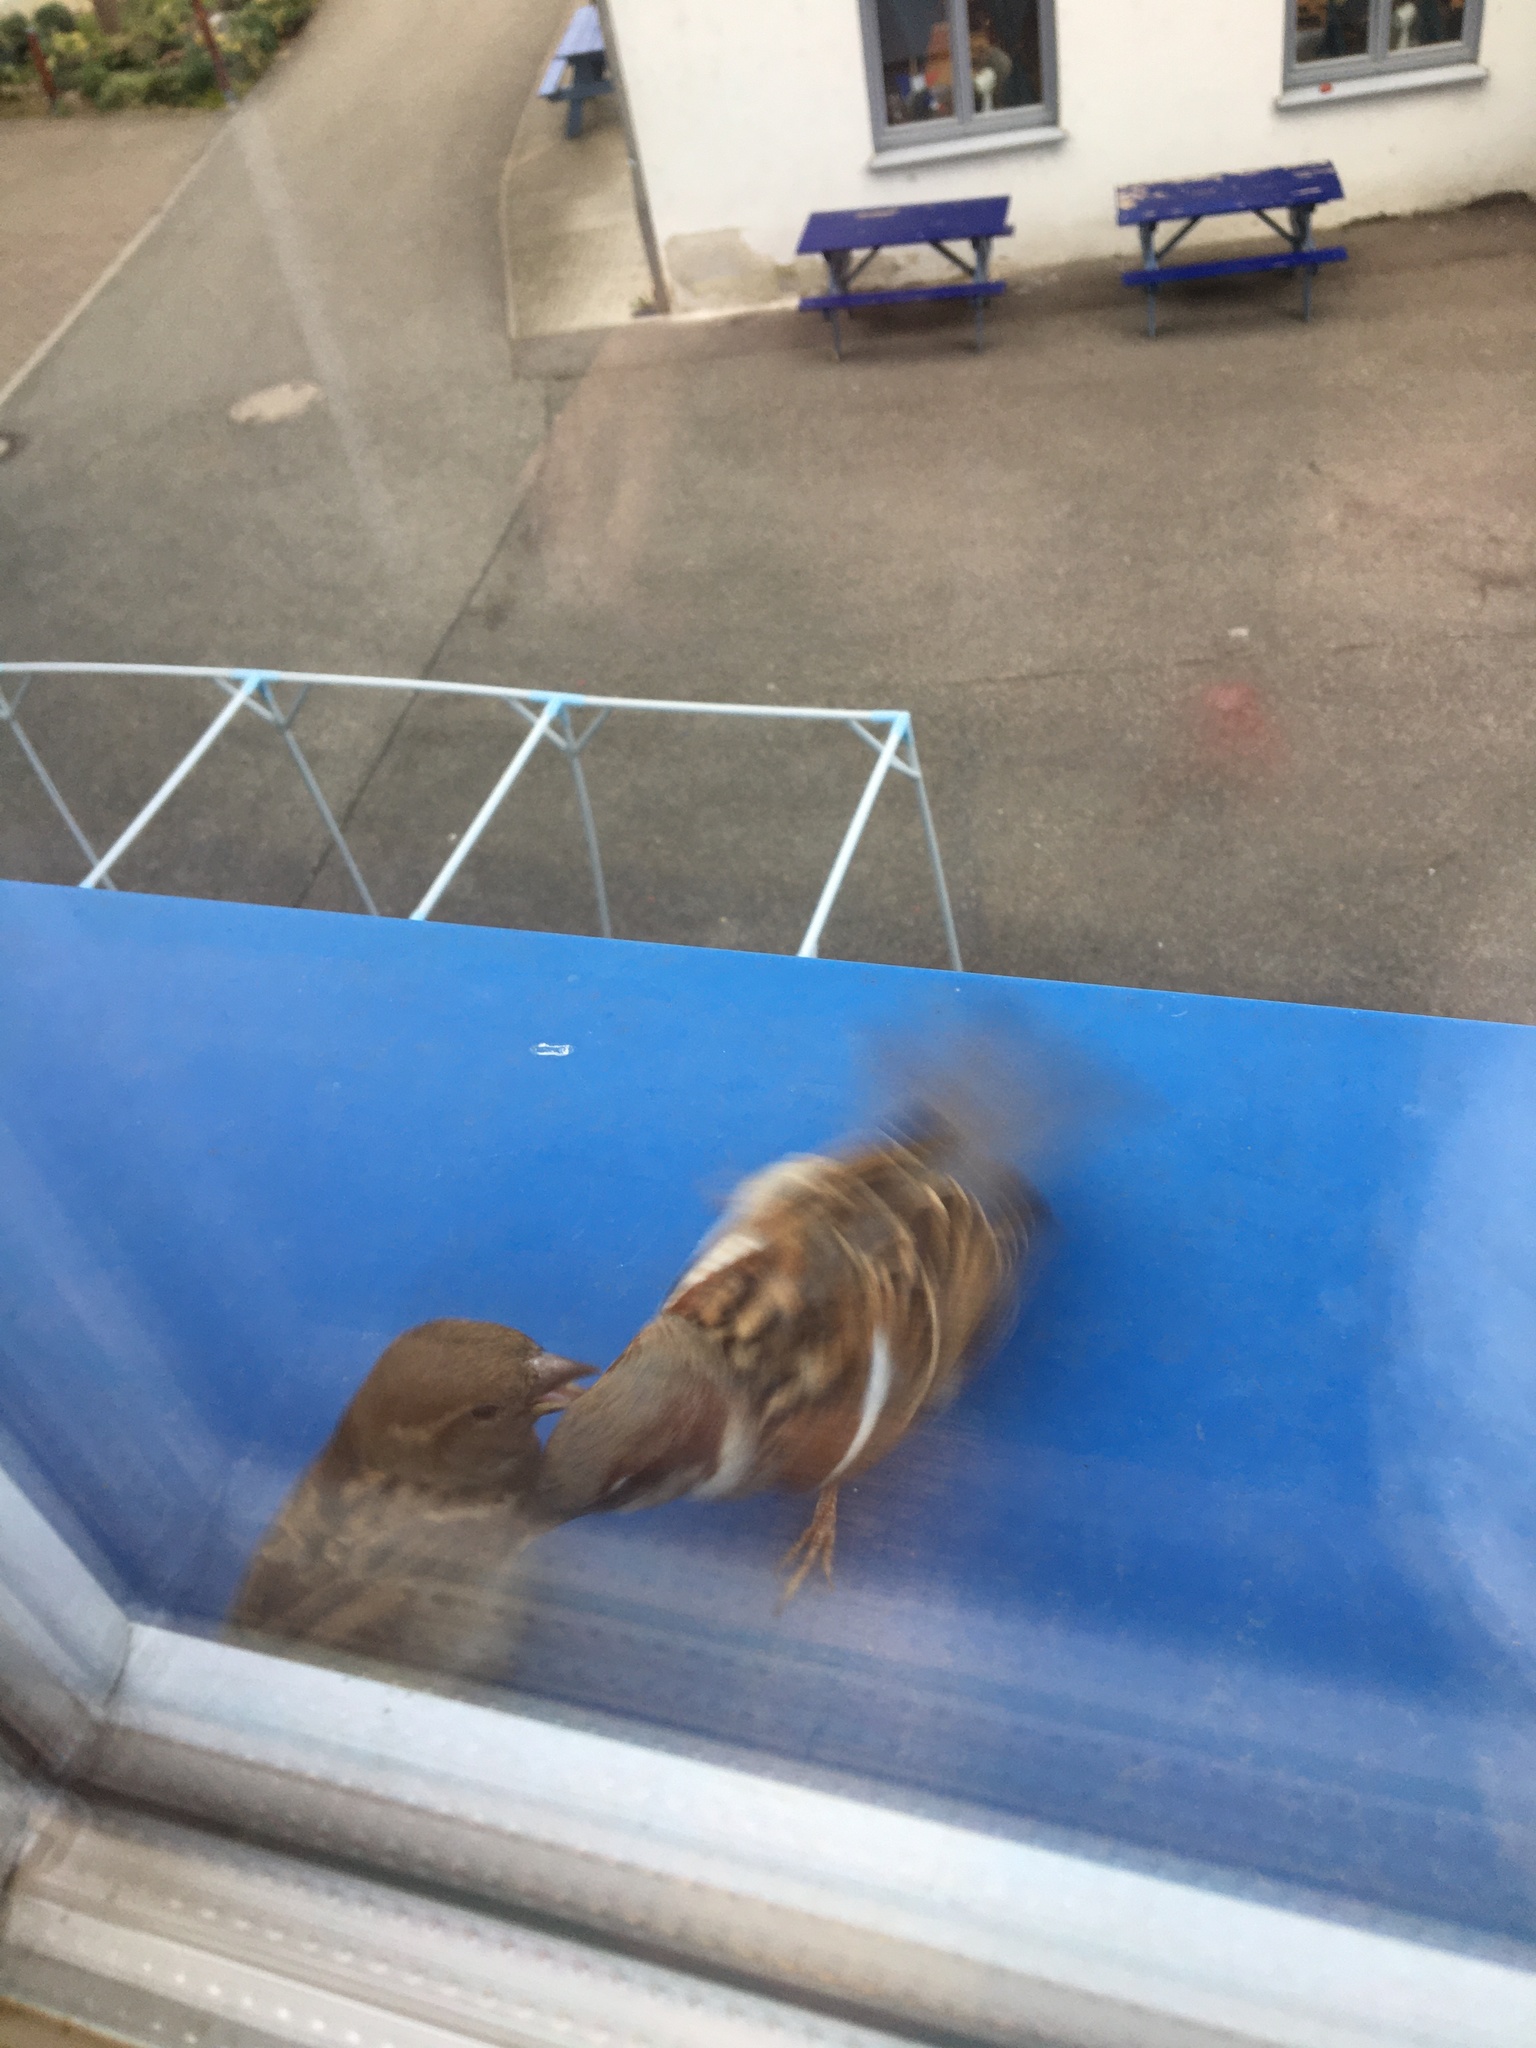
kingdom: Animalia
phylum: Chordata
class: Aves
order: Passeriformes
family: Passeridae
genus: Passer
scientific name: Passer domesticus
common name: House sparrow
